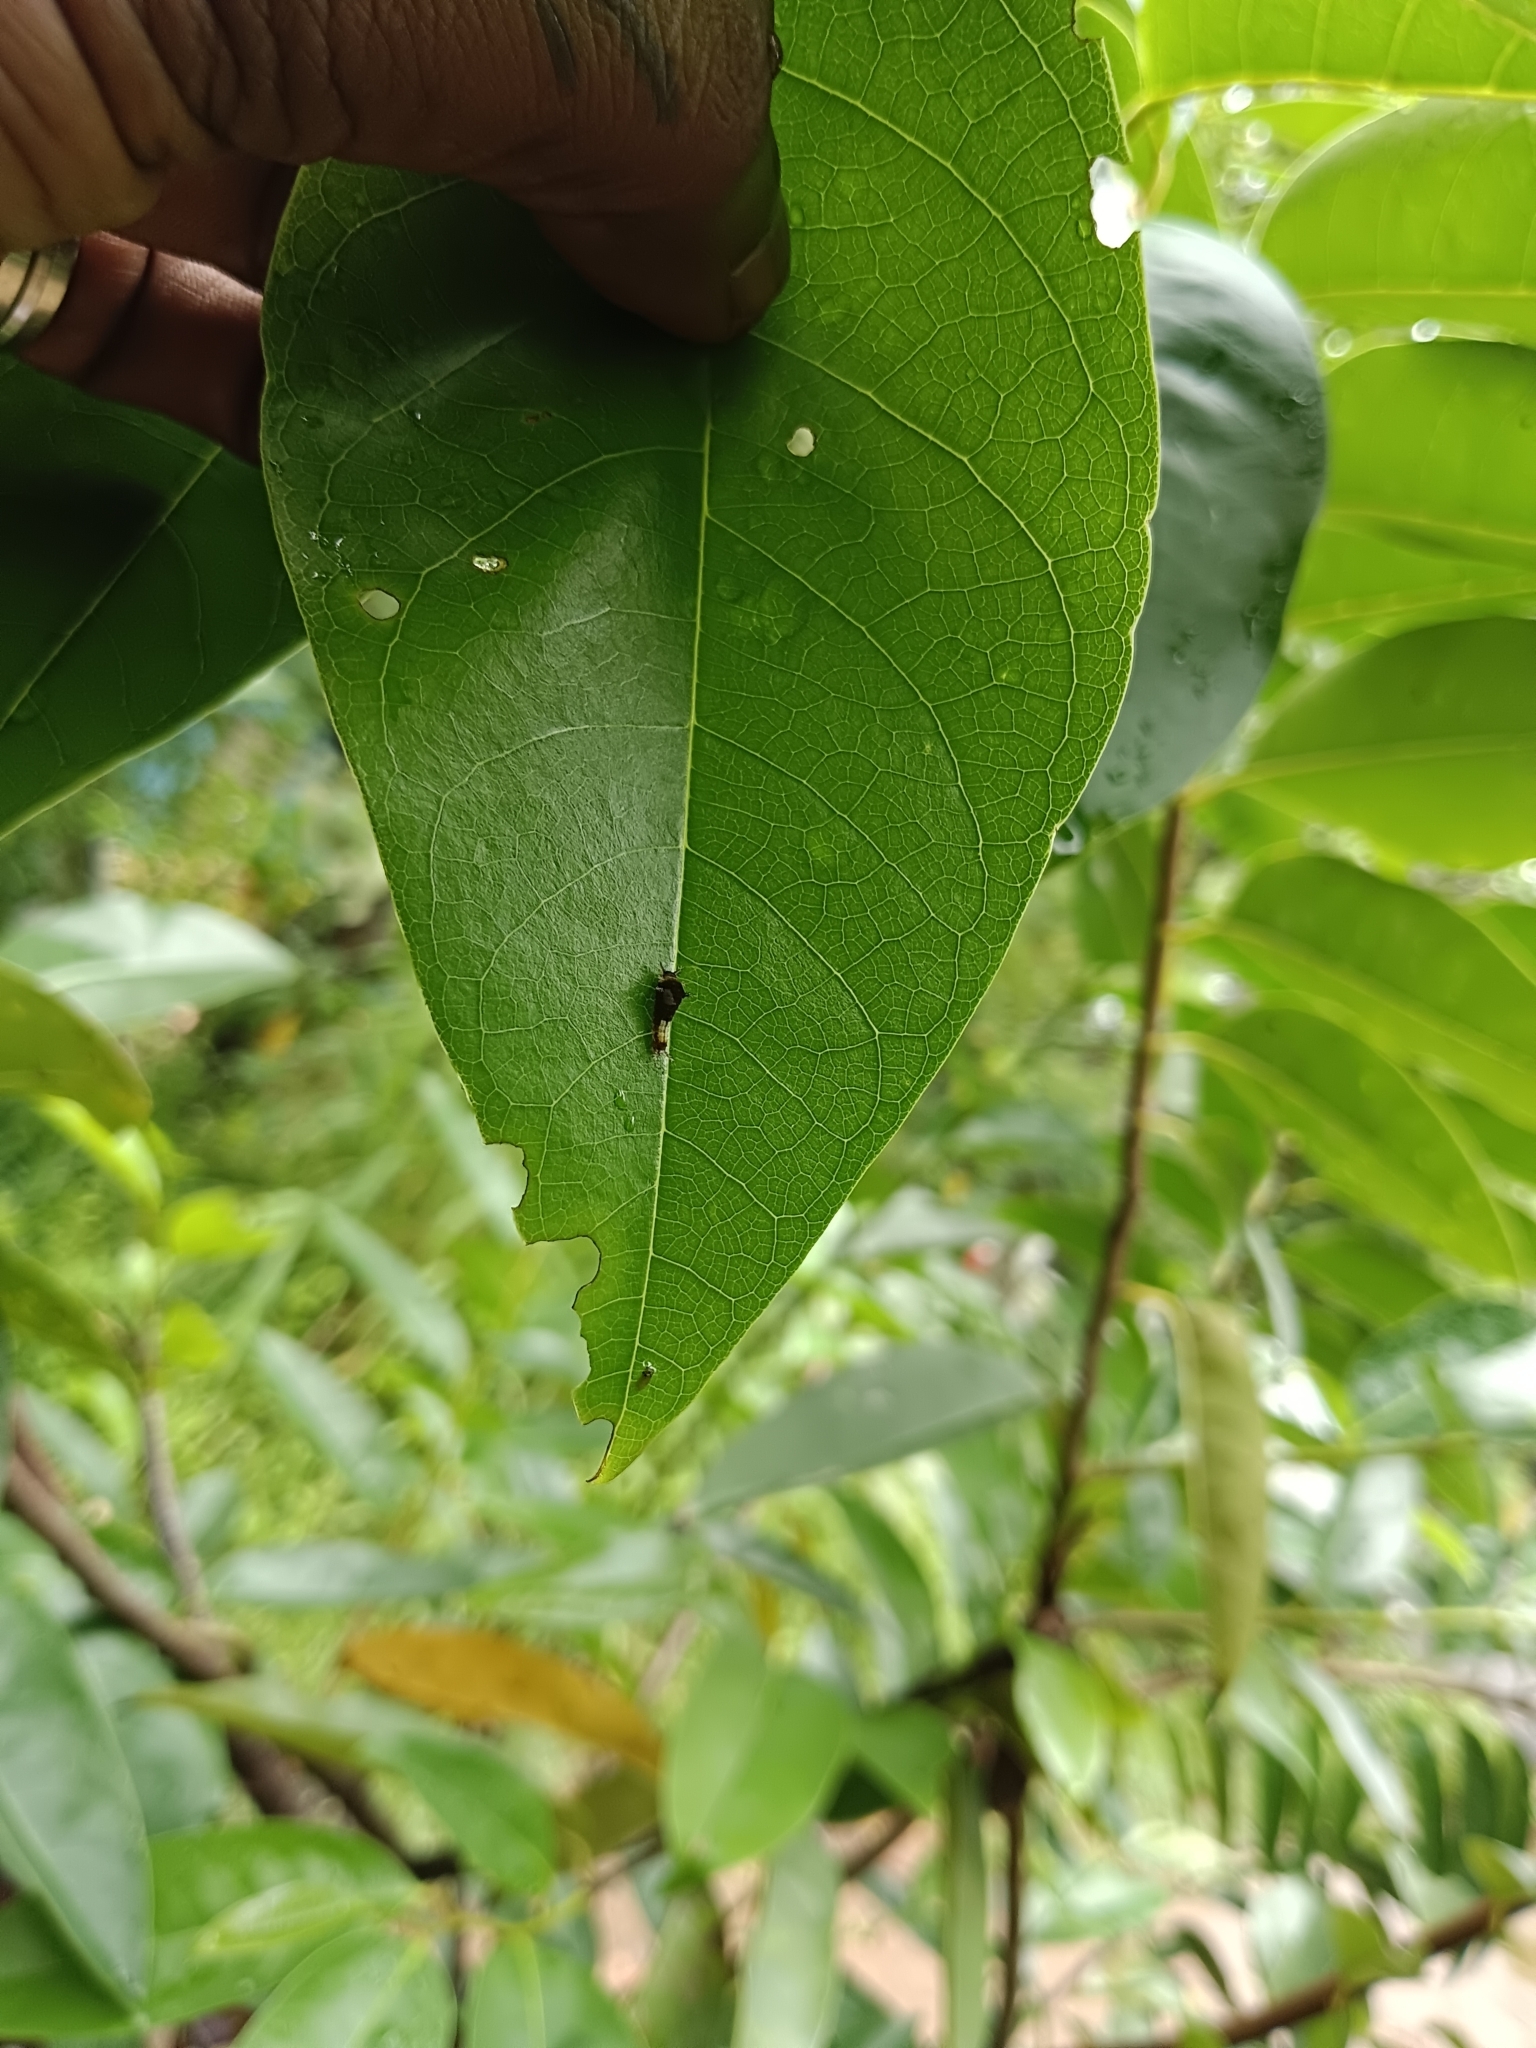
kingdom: Animalia
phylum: Arthropoda
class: Insecta
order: Lepidoptera
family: Papilionidae
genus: Graphium
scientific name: Graphium agamemnon
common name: Tailed jay
